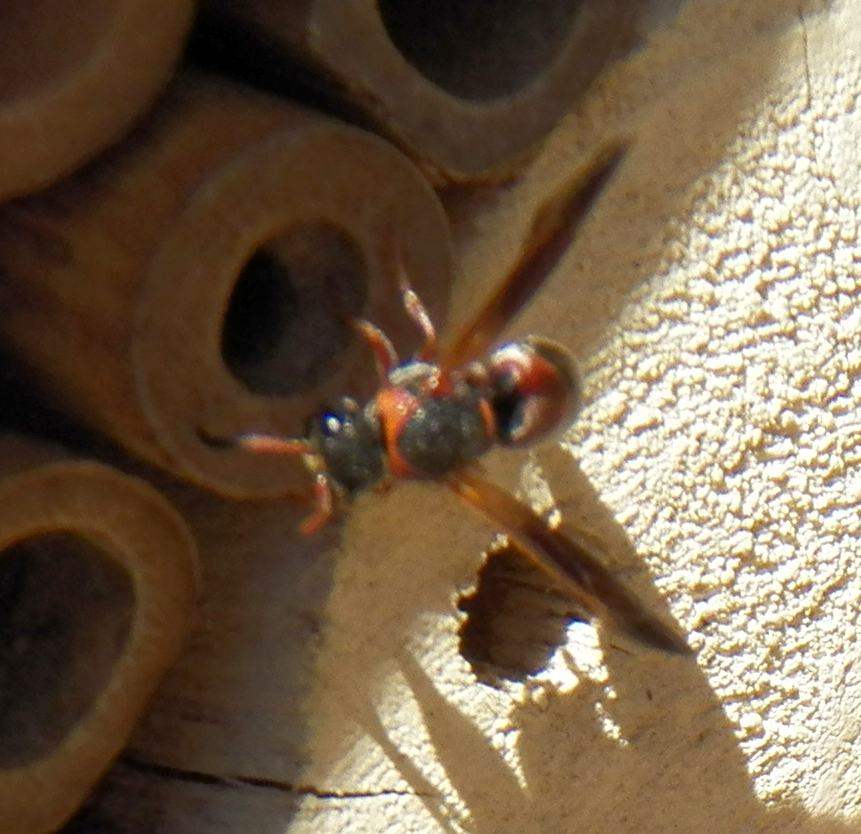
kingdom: Animalia
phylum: Arthropoda
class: Insecta
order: Hymenoptera
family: Eumenidae
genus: Pachodynerus
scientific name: Pachodynerus erynnis
